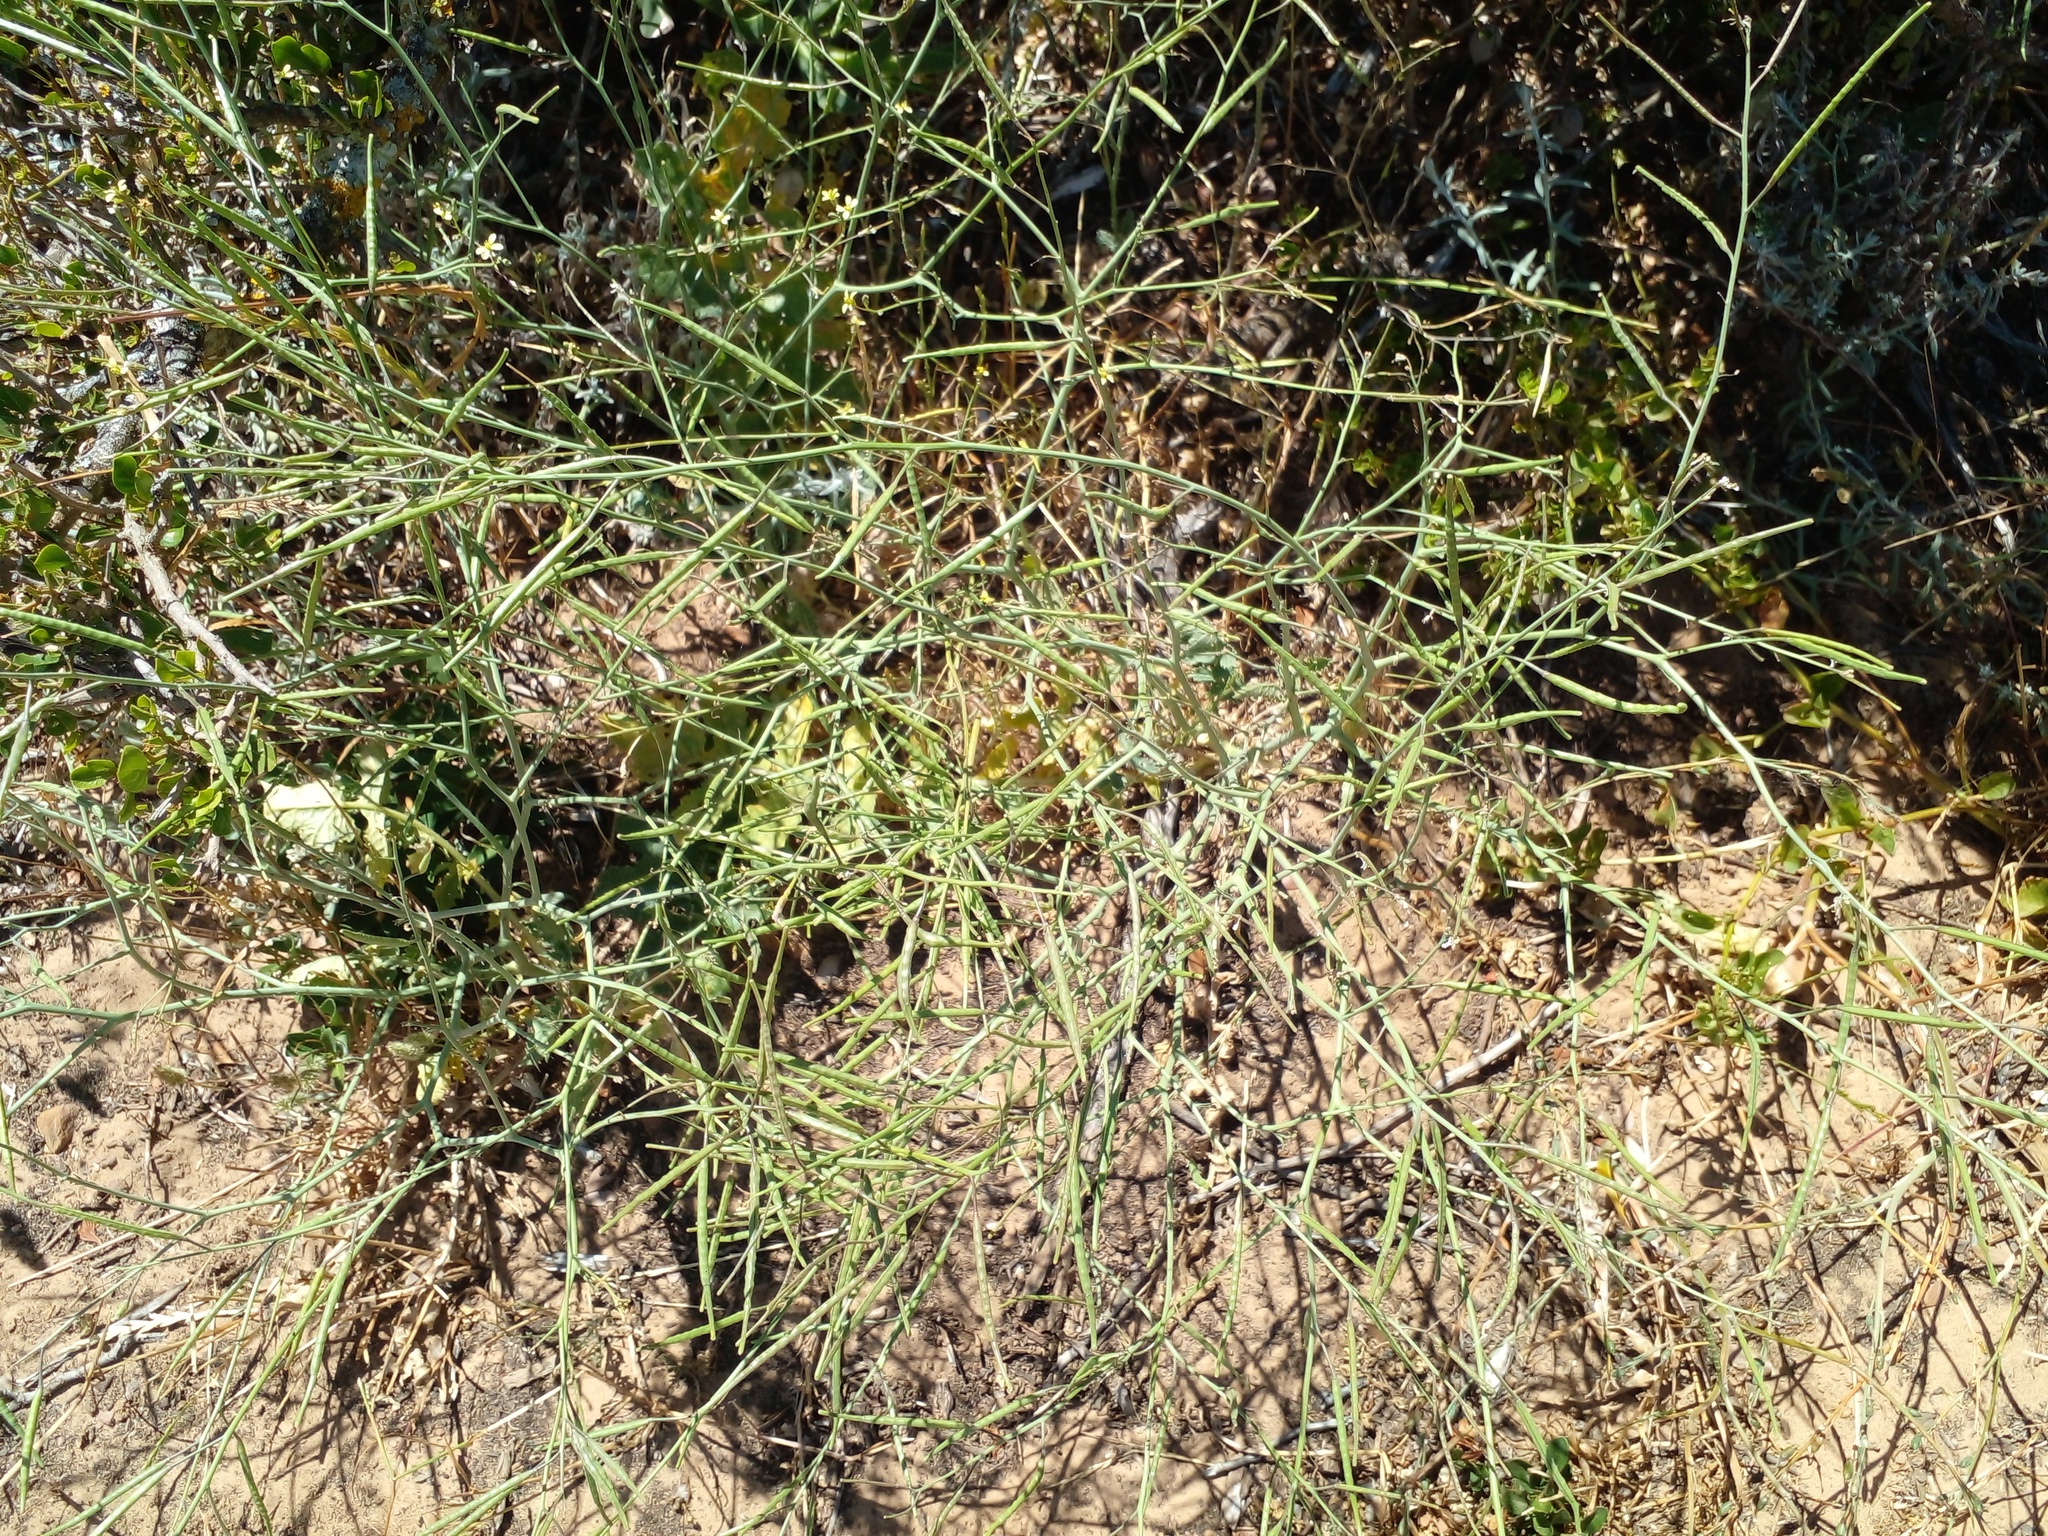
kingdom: Plantae
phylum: Tracheophyta
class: Magnoliopsida
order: Brassicales
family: Brassicaceae
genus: Brassica
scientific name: Brassica tournefortii
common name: Pale cabbage
